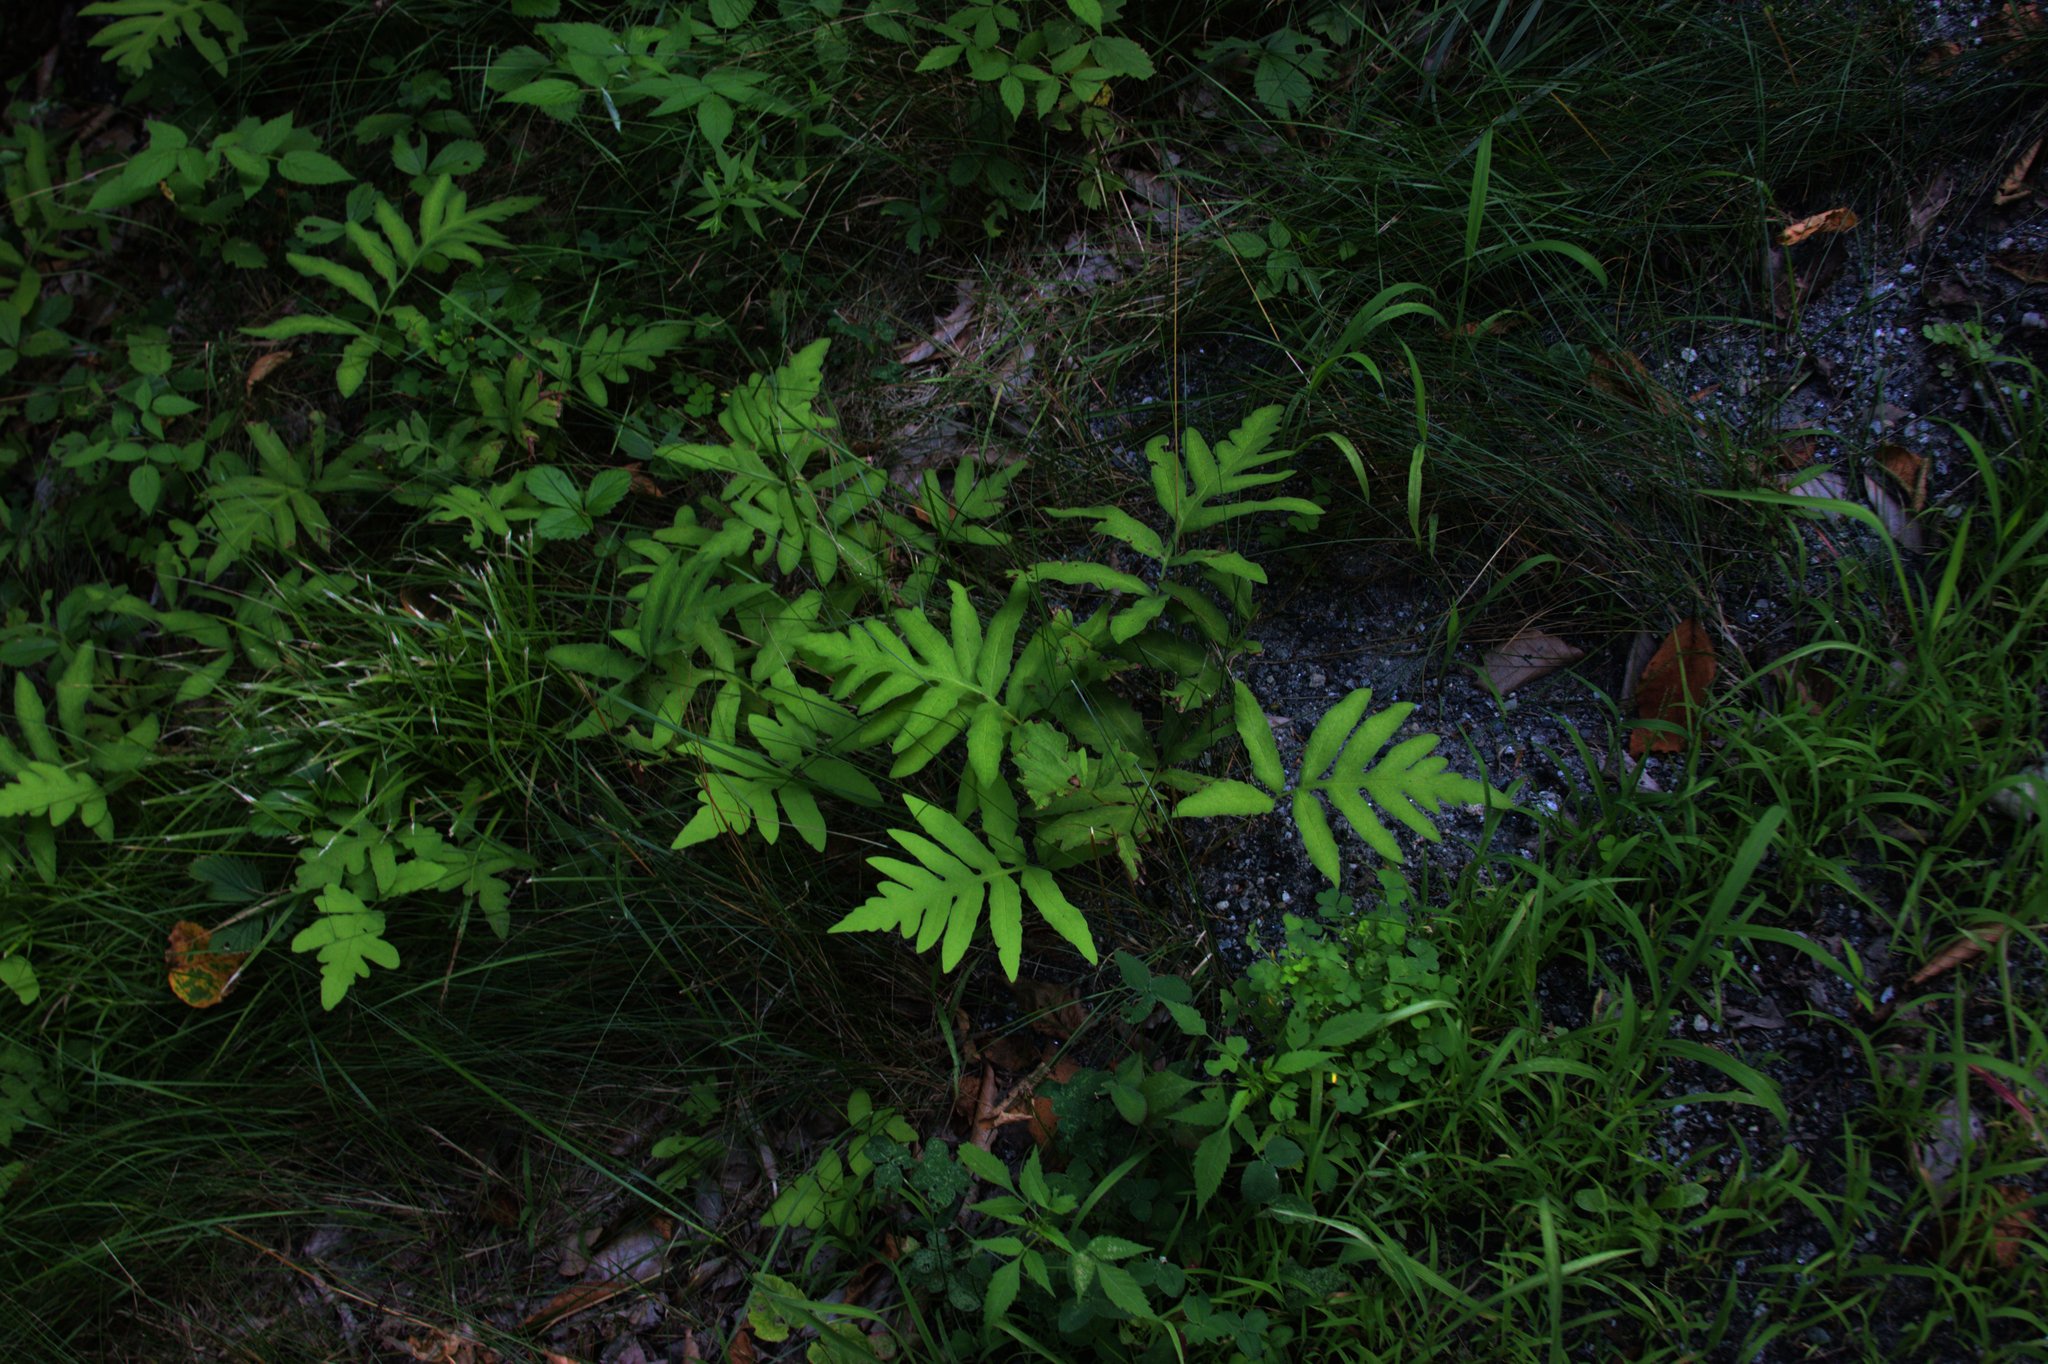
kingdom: Plantae
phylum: Tracheophyta
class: Polypodiopsida
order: Polypodiales
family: Onocleaceae
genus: Onoclea
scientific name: Onoclea sensibilis
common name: Sensitive fern
